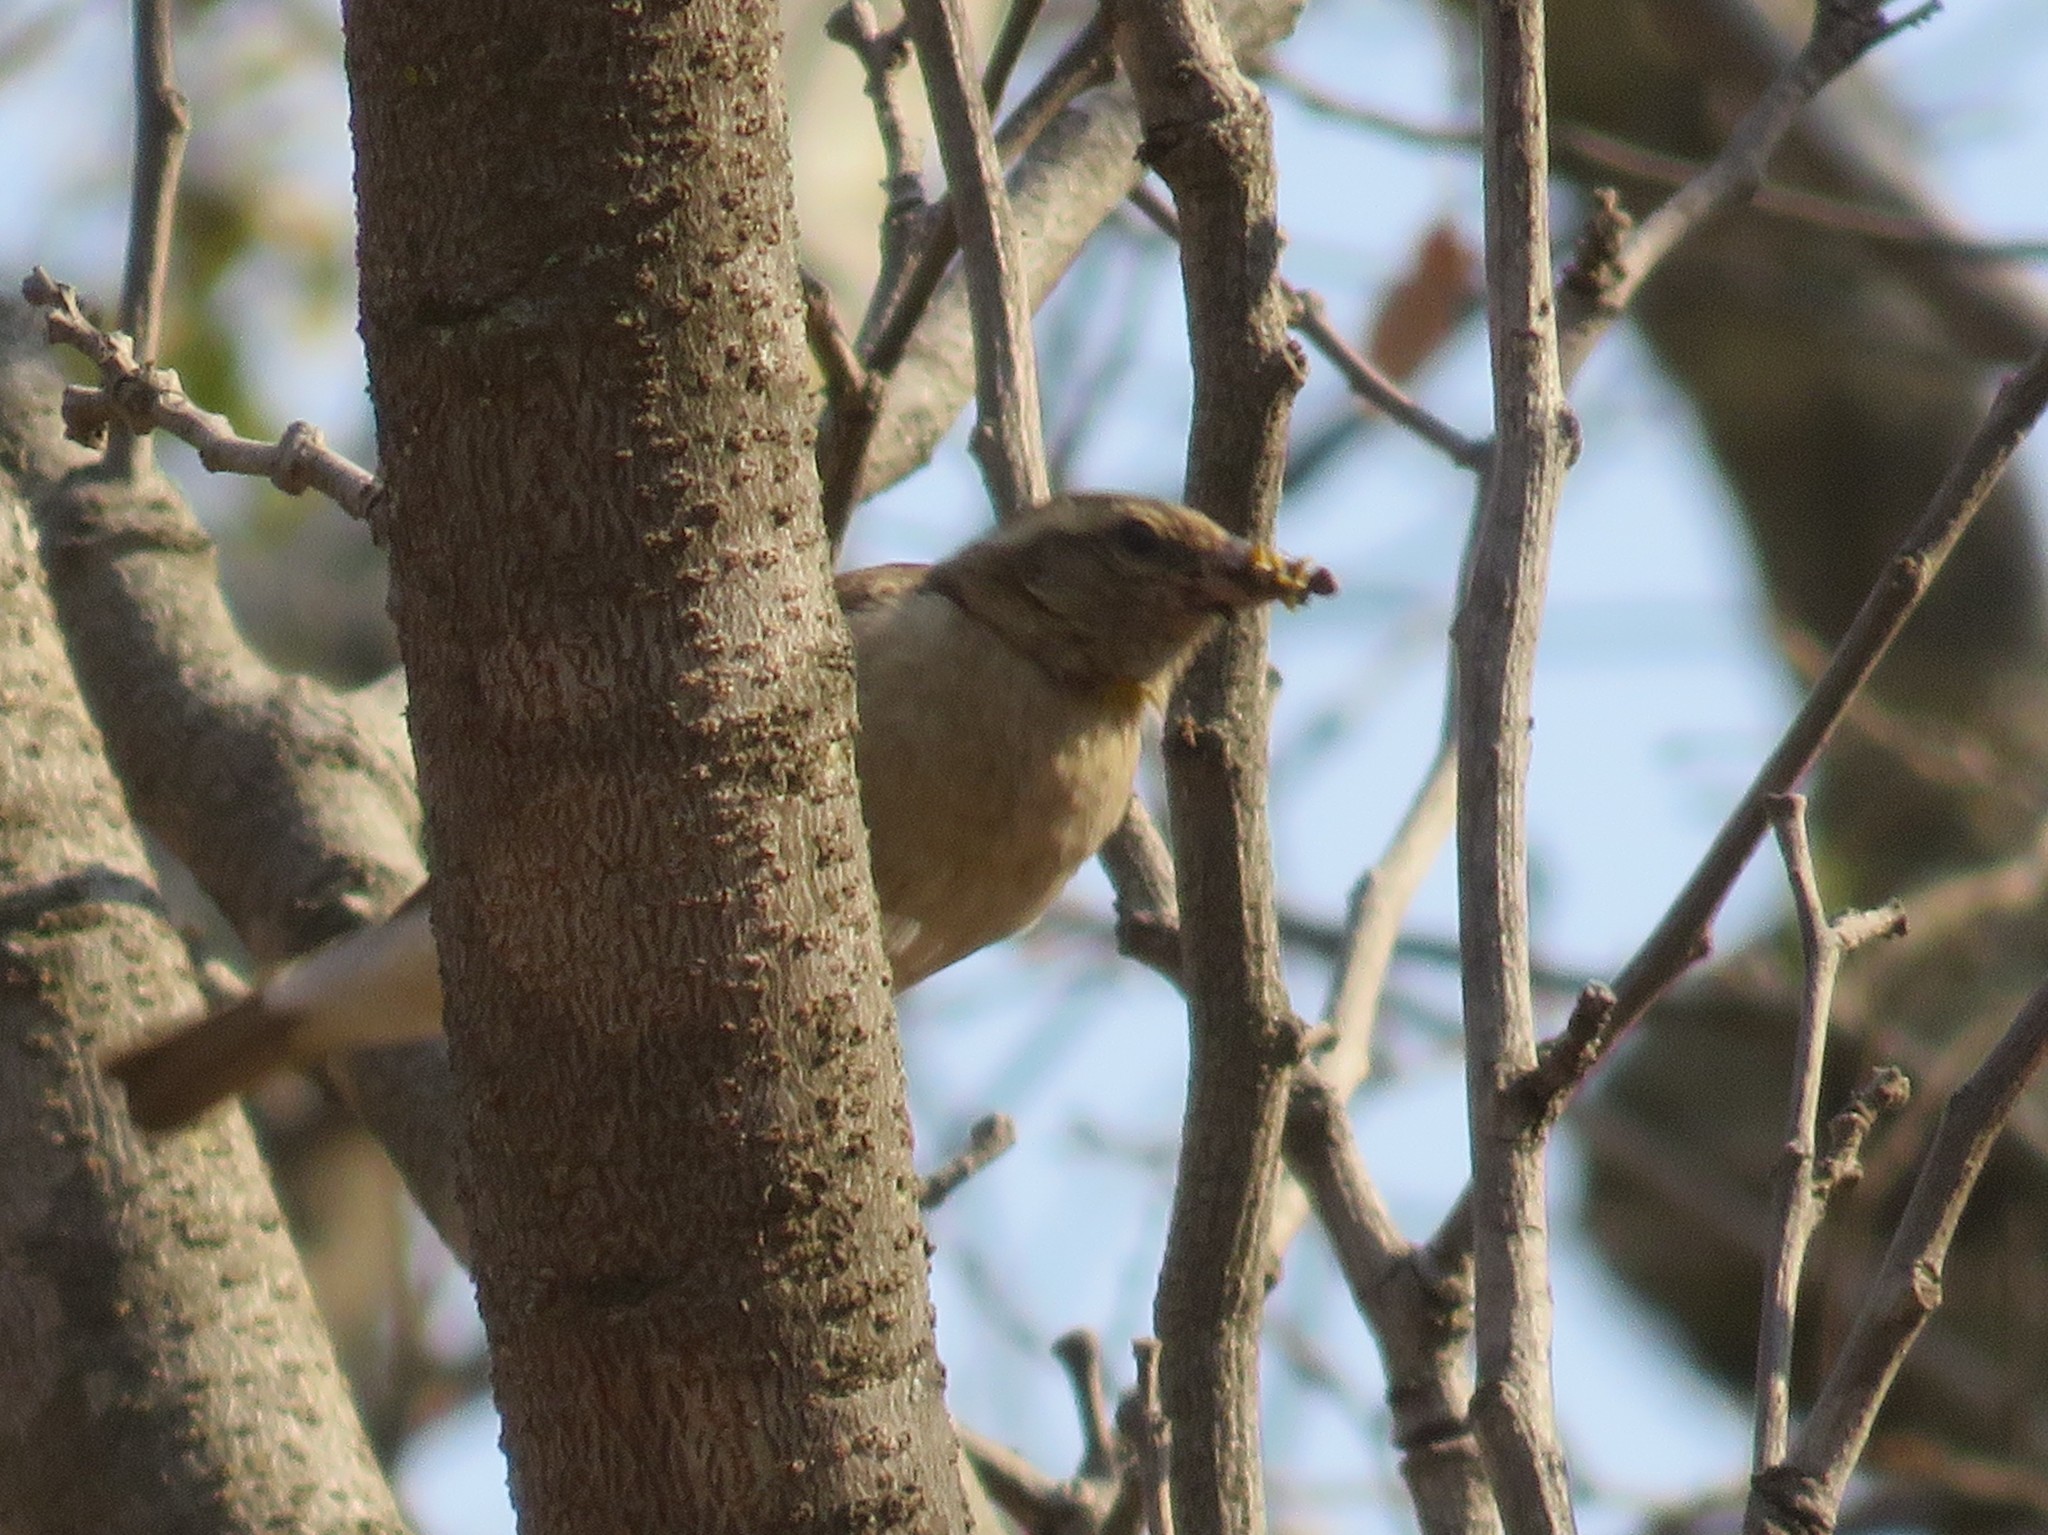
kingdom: Animalia
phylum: Chordata
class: Aves
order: Passeriformes
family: Passeridae
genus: Gymnoris
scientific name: Gymnoris superciliaris
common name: Yellow-throated petronia
